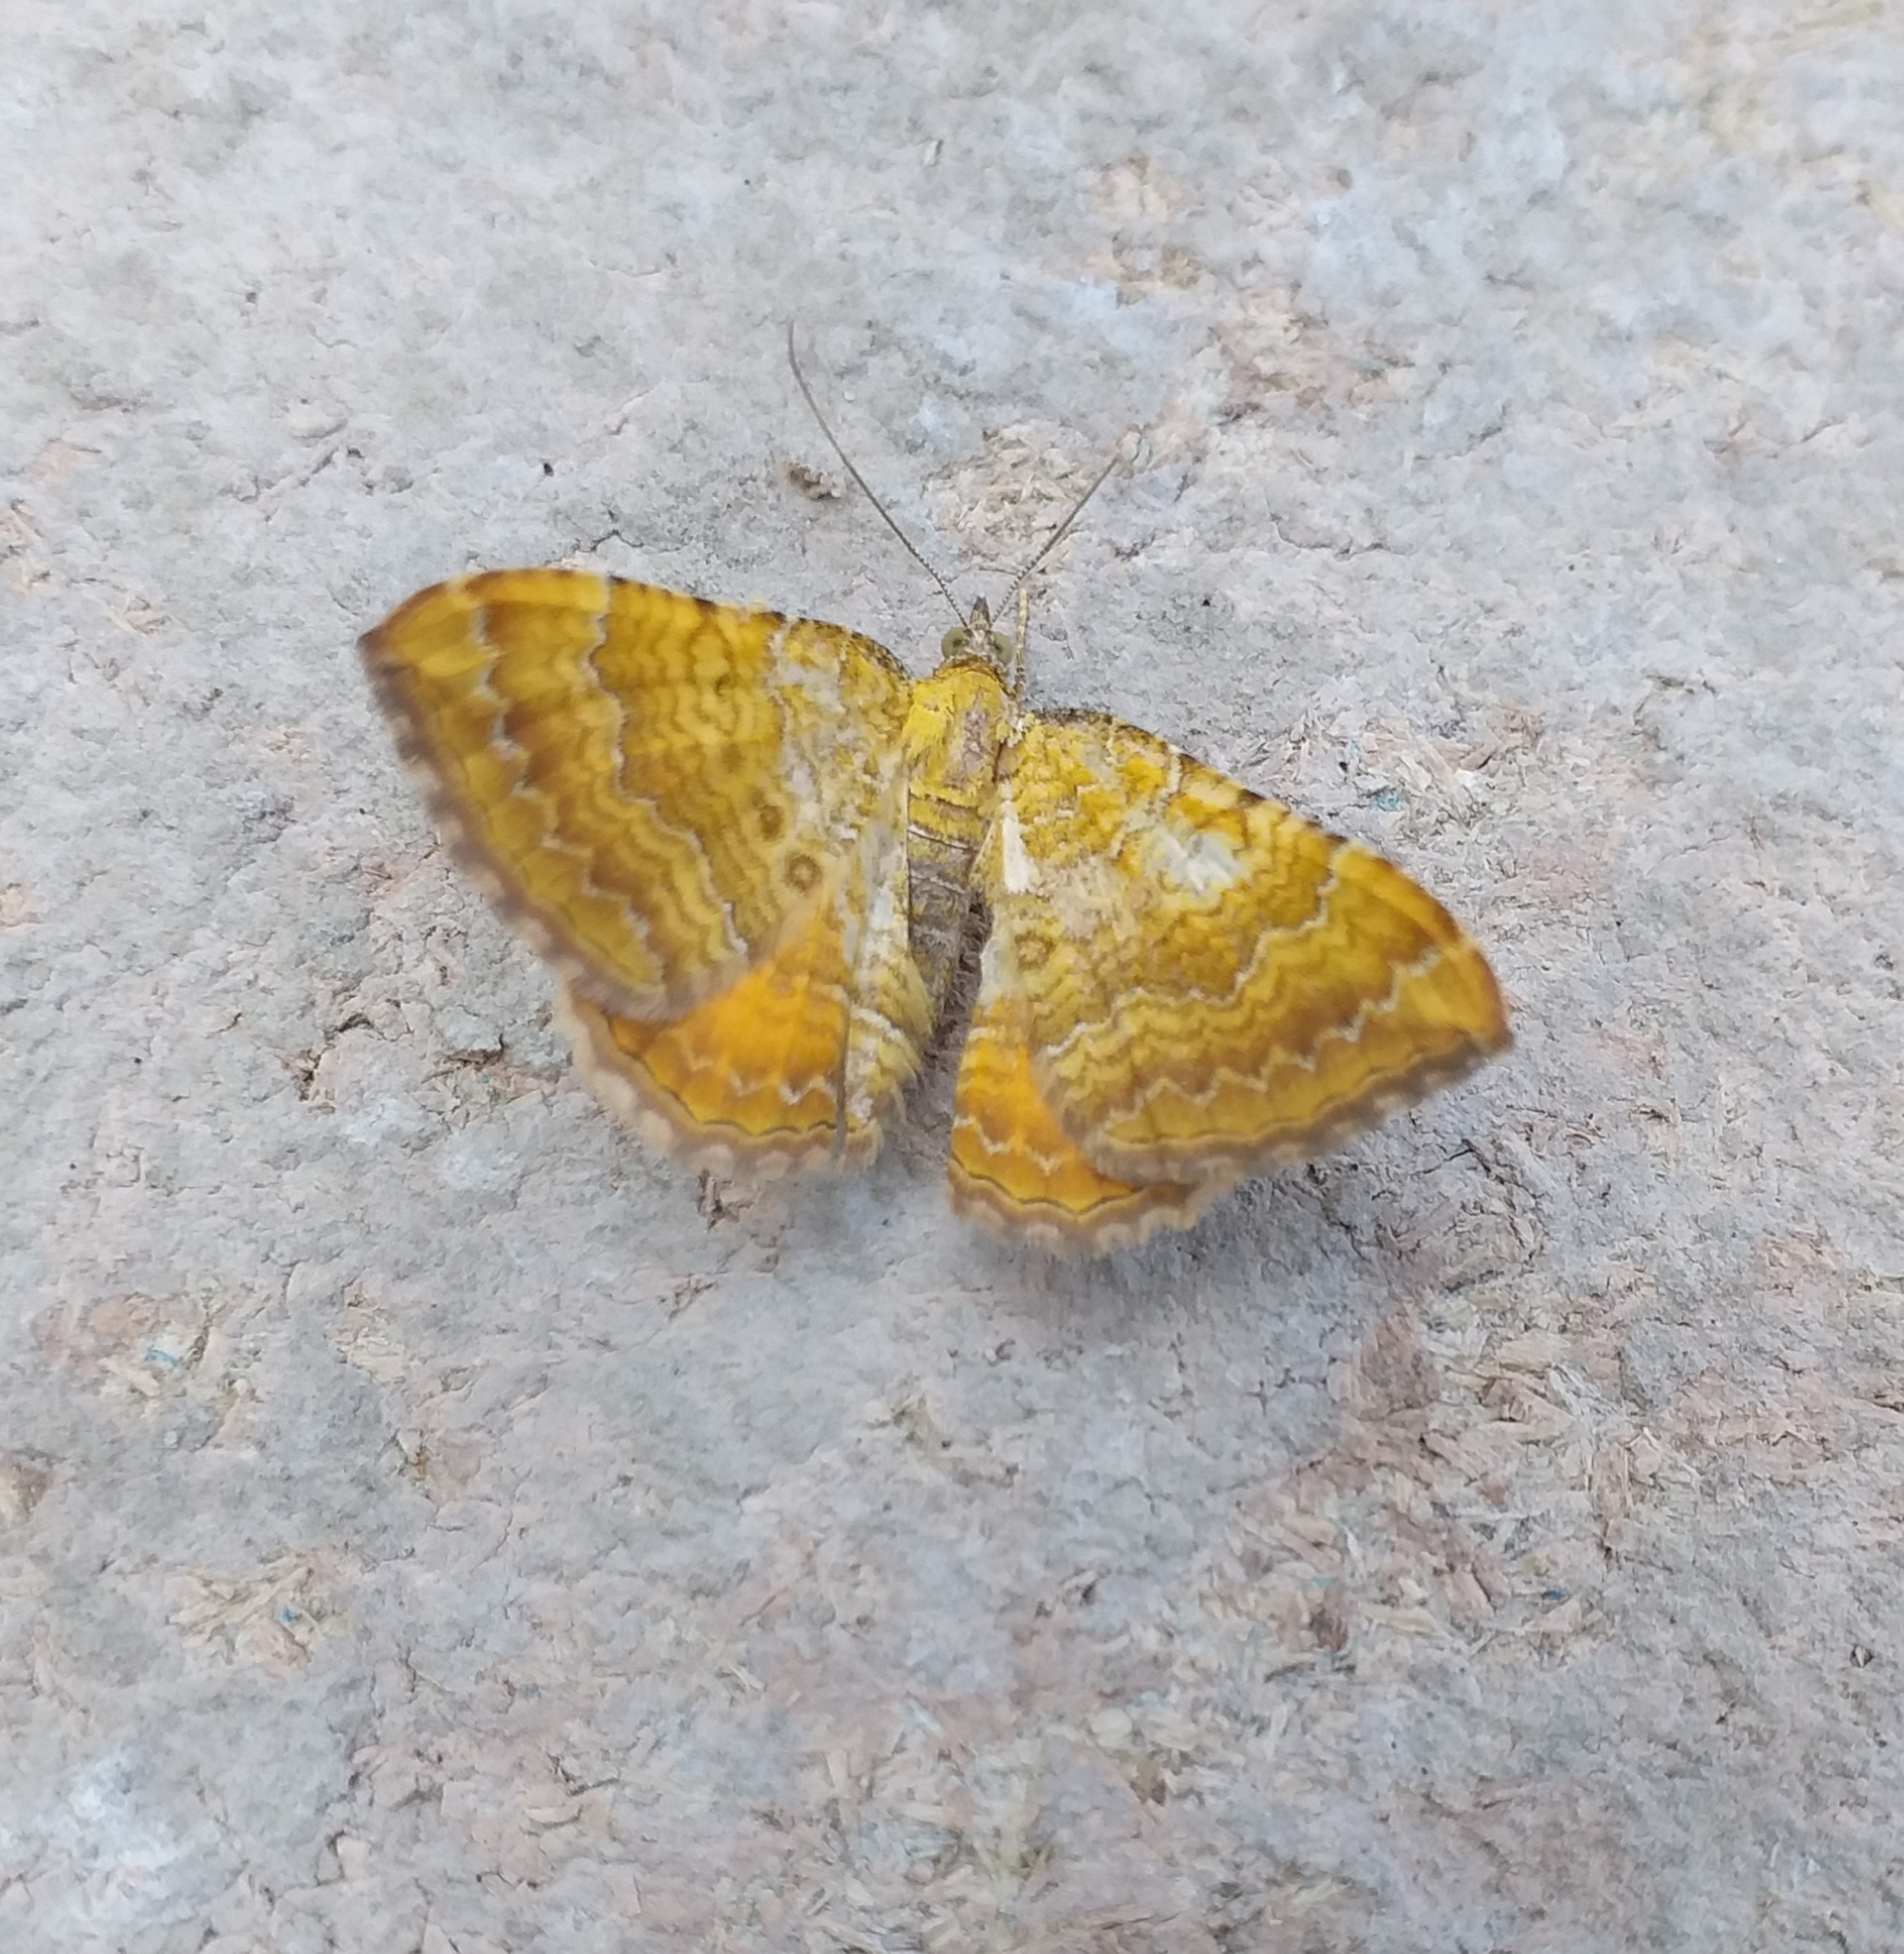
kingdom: Animalia
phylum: Arthropoda
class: Insecta
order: Lepidoptera
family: Geometridae
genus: Camptogramma
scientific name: Camptogramma bilineata
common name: Yellow shell
